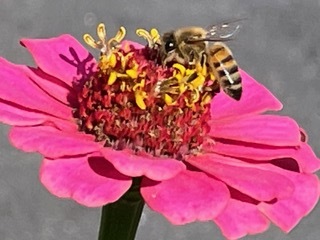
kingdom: Animalia
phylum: Arthropoda
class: Insecta
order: Hymenoptera
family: Apidae
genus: Apis
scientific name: Apis mellifera
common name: Honey bee
